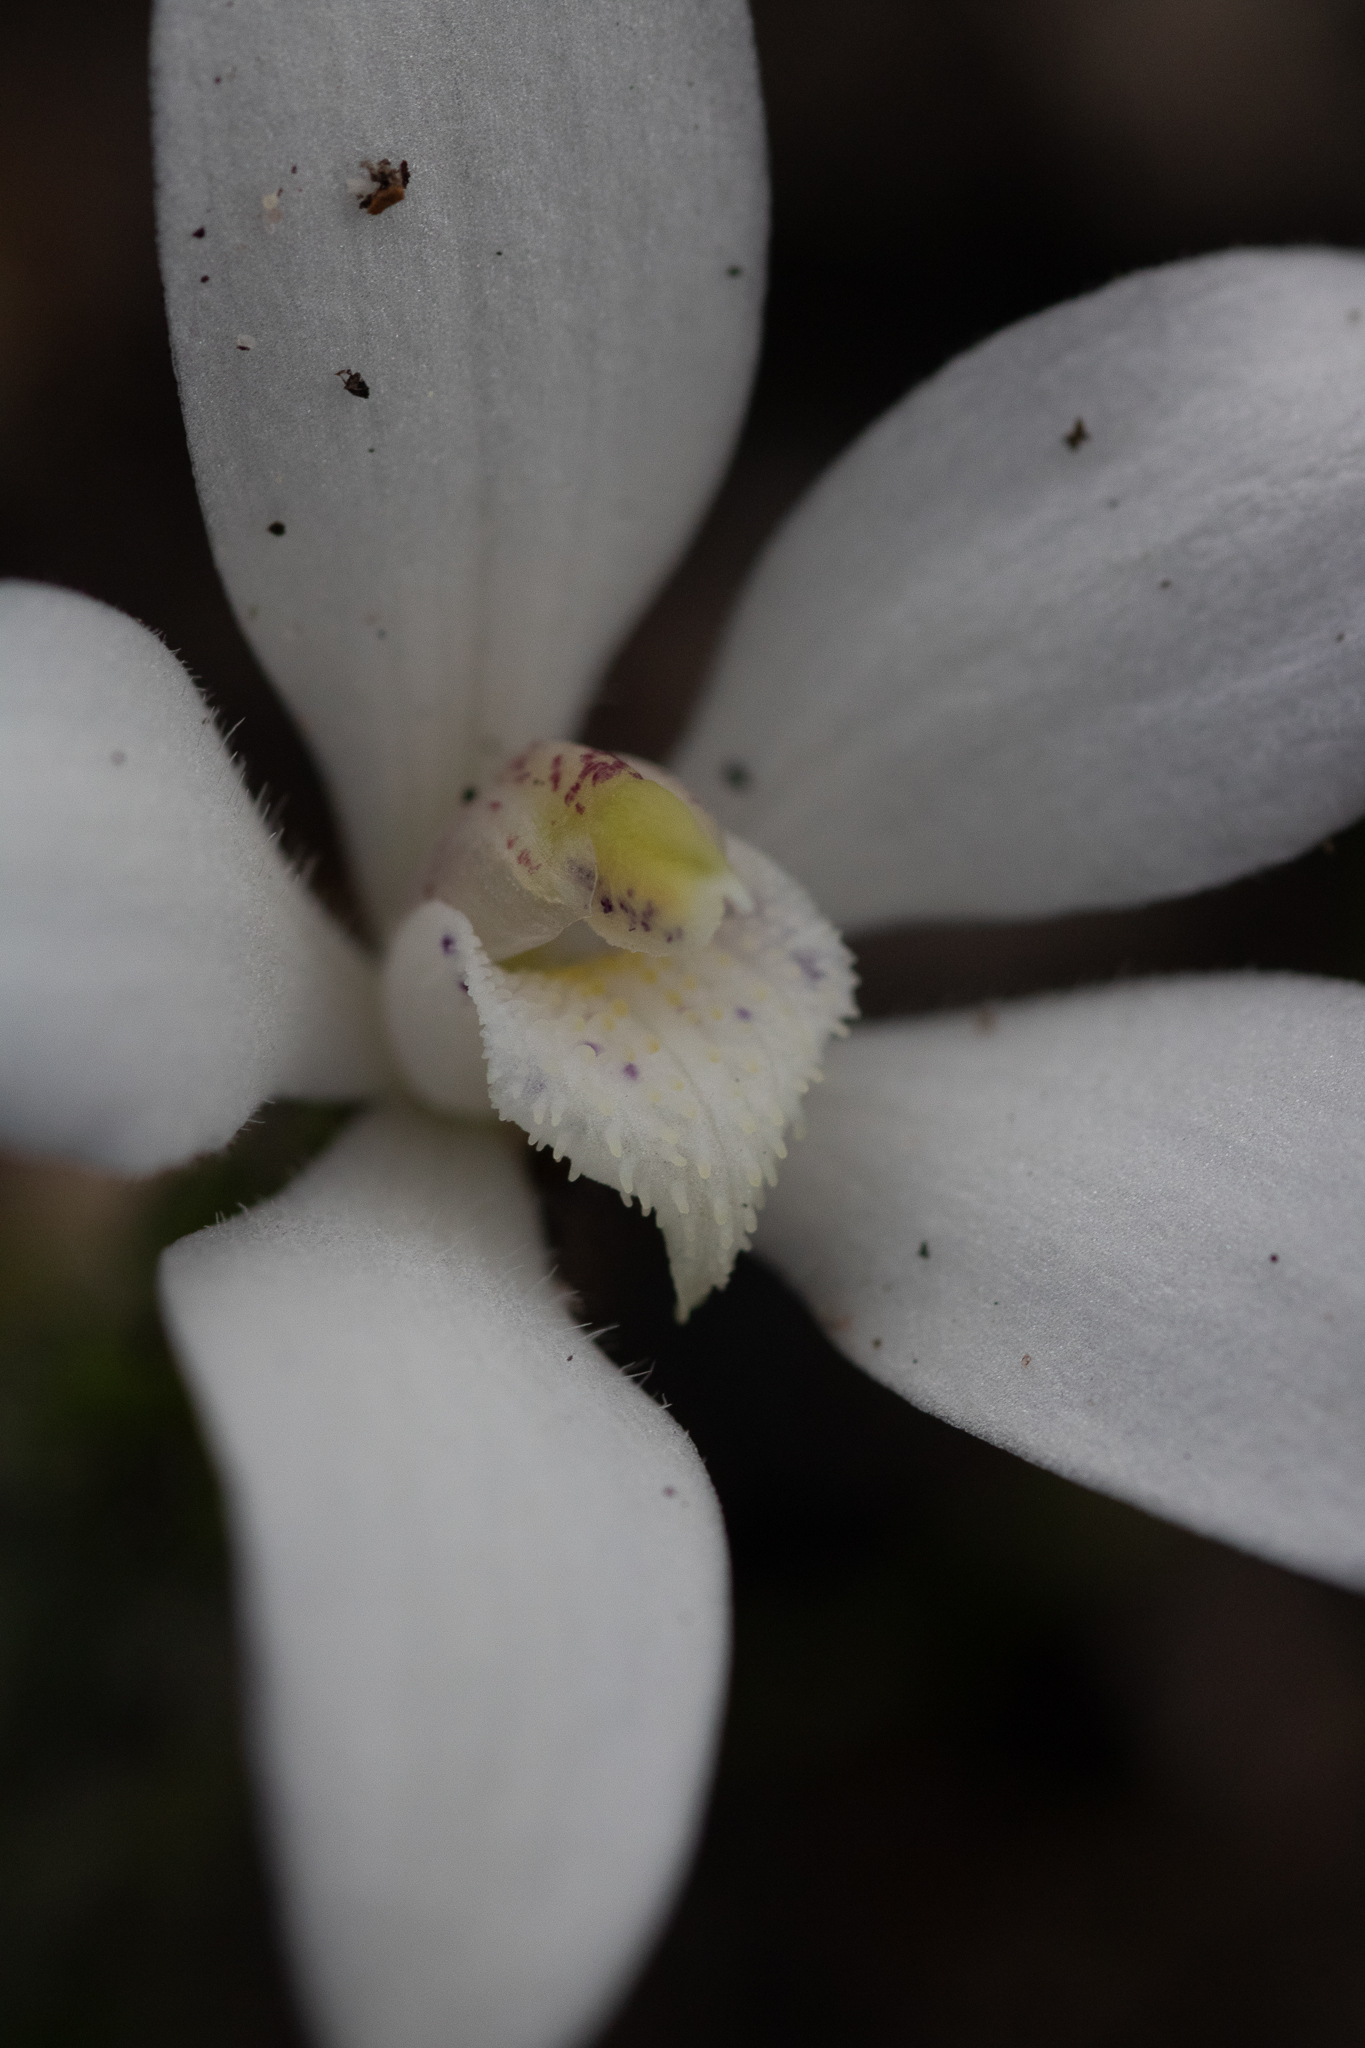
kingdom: Plantae
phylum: Tracheophyta
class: Liliopsida
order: Asparagales
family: Orchidaceae
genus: Caladenia
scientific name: Caladenia ixioides
